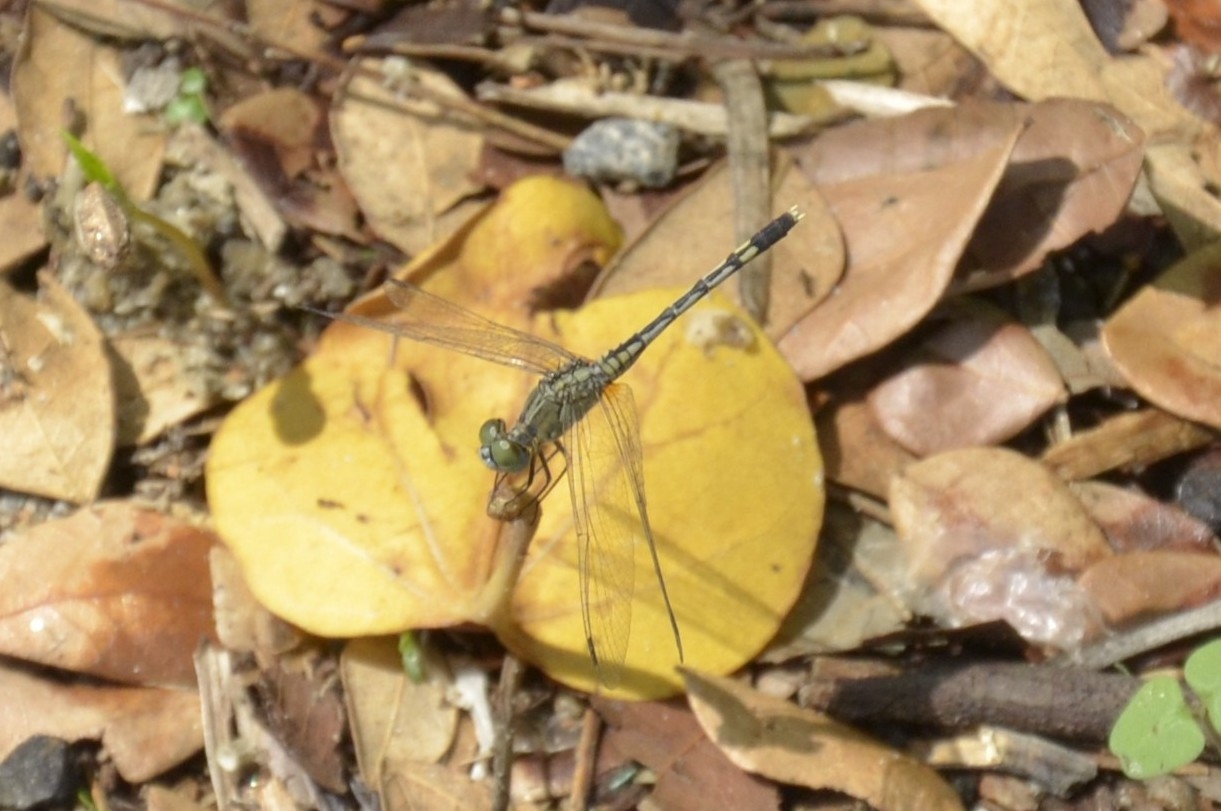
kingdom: Animalia
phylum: Arthropoda
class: Insecta
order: Odonata
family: Libellulidae
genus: Diplacodes
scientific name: Diplacodes trivialis
